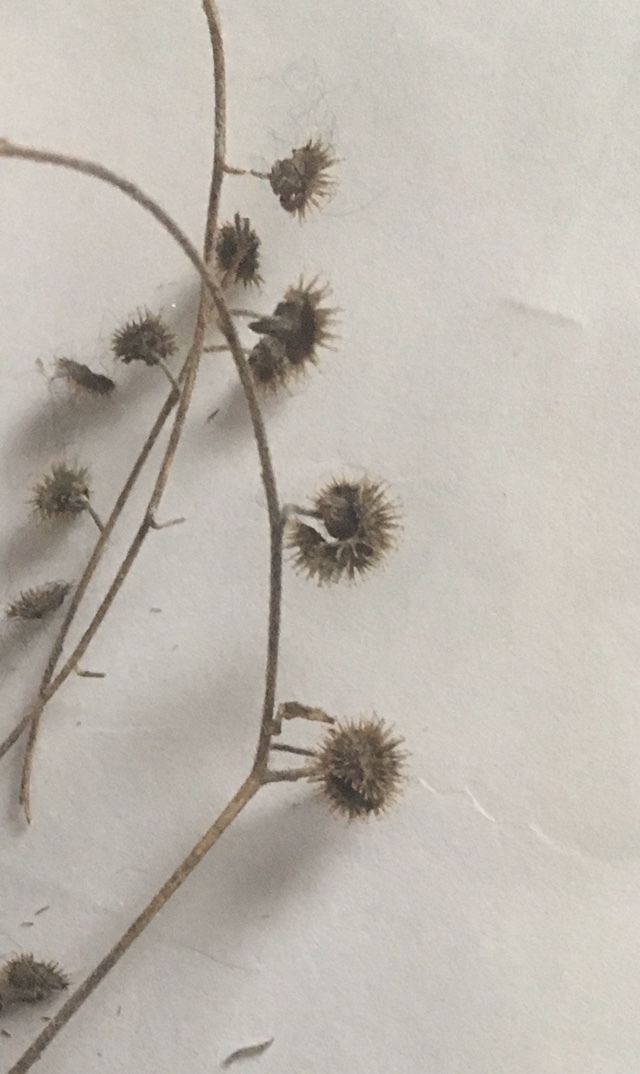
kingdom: Plantae
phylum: Tracheophyta
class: Magnoliopsida
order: Boraginales
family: Boraginaceae
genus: Hackelia
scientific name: Hackelia virginiana
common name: Beggar's-lice
